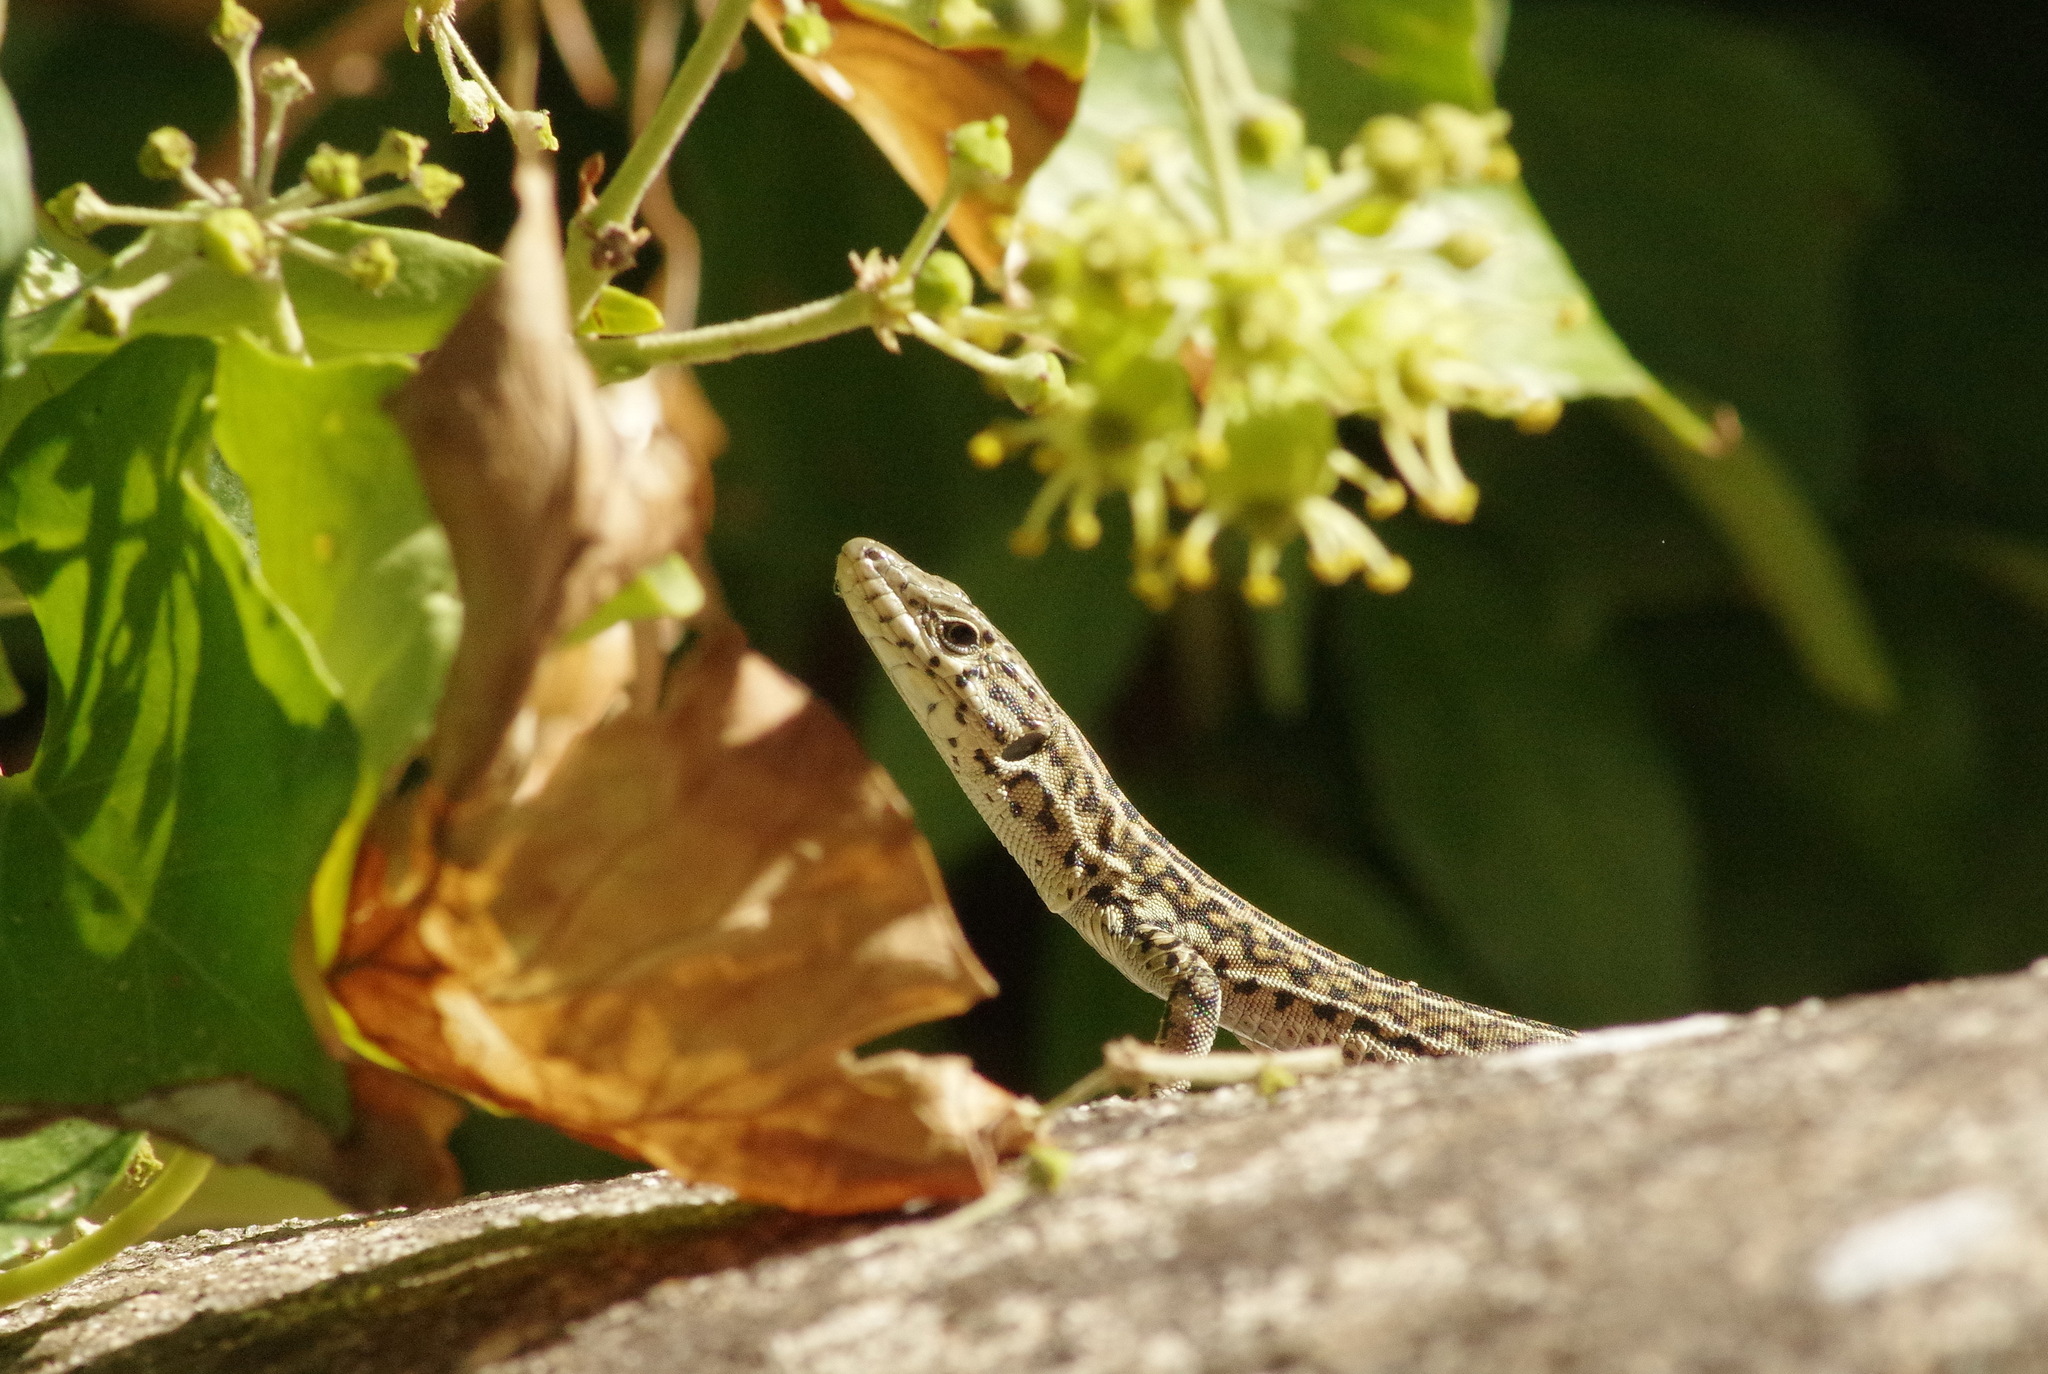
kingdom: Animalia
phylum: Chordata
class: Squamata
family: Lacertidae
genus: Podarcis
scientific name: Podarcis guadarramae
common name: Guadarrama wall lizard
